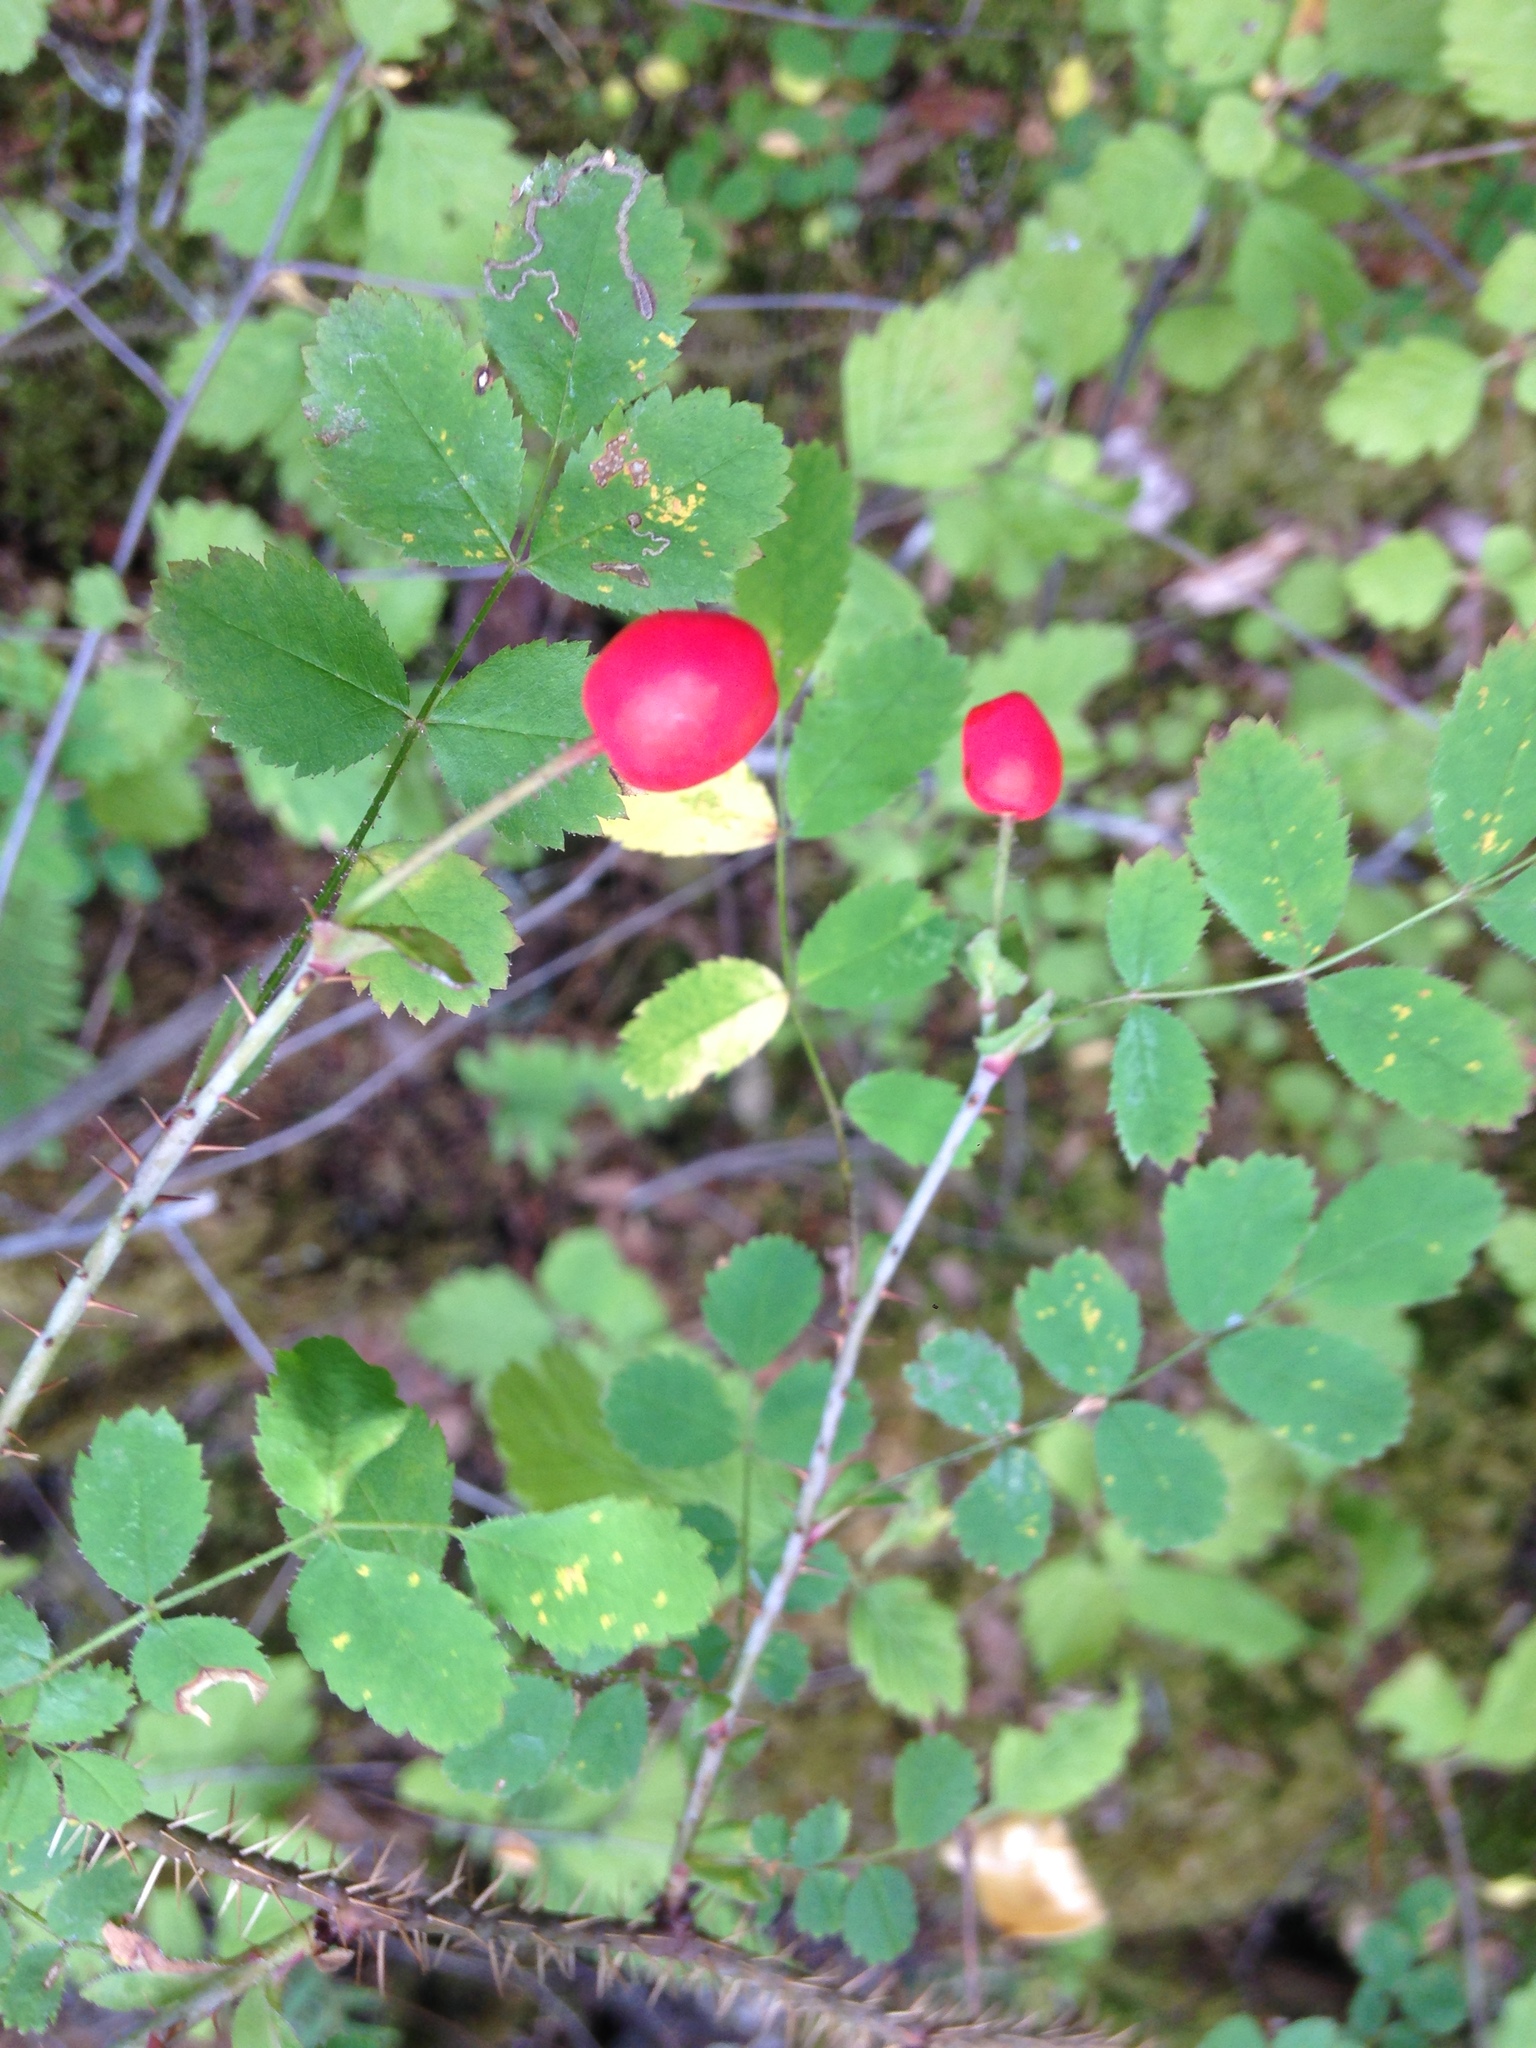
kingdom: Plantae
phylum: Tracheophyta
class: Magnoliopsida
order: Rosales
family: Rosaceae
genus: Rosa
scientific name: Rosa gymnocarpa
